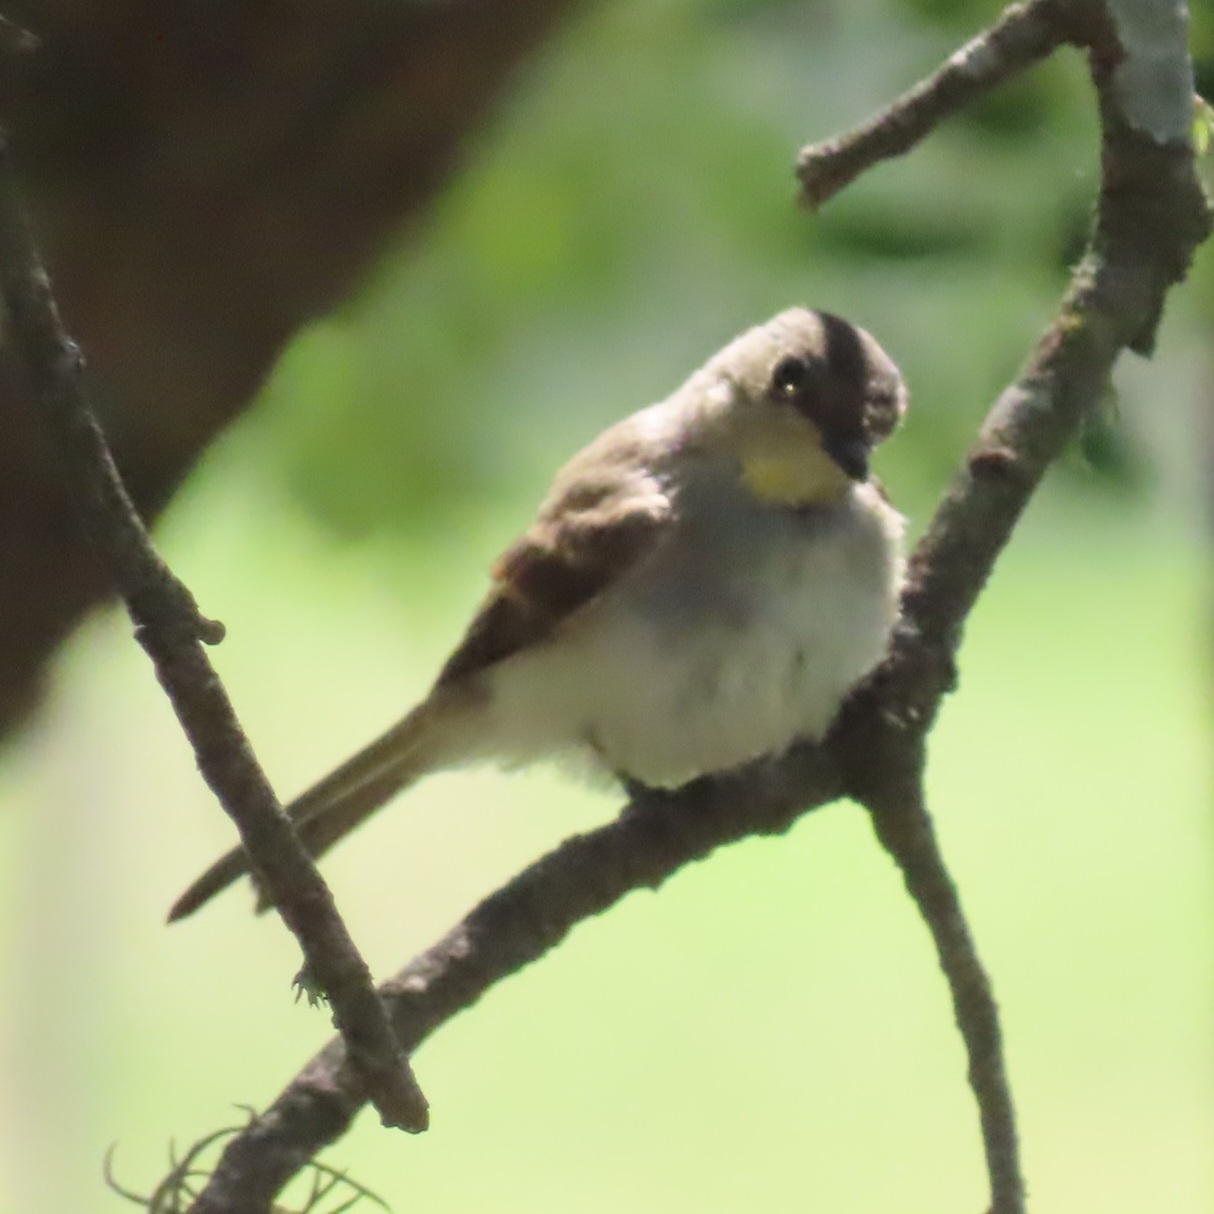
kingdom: Animalia
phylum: Chordata
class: Aves
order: Passeriformes
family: Tyrannidae
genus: Sayornis
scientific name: Sayornis phoebe
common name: Eastern phoebe
